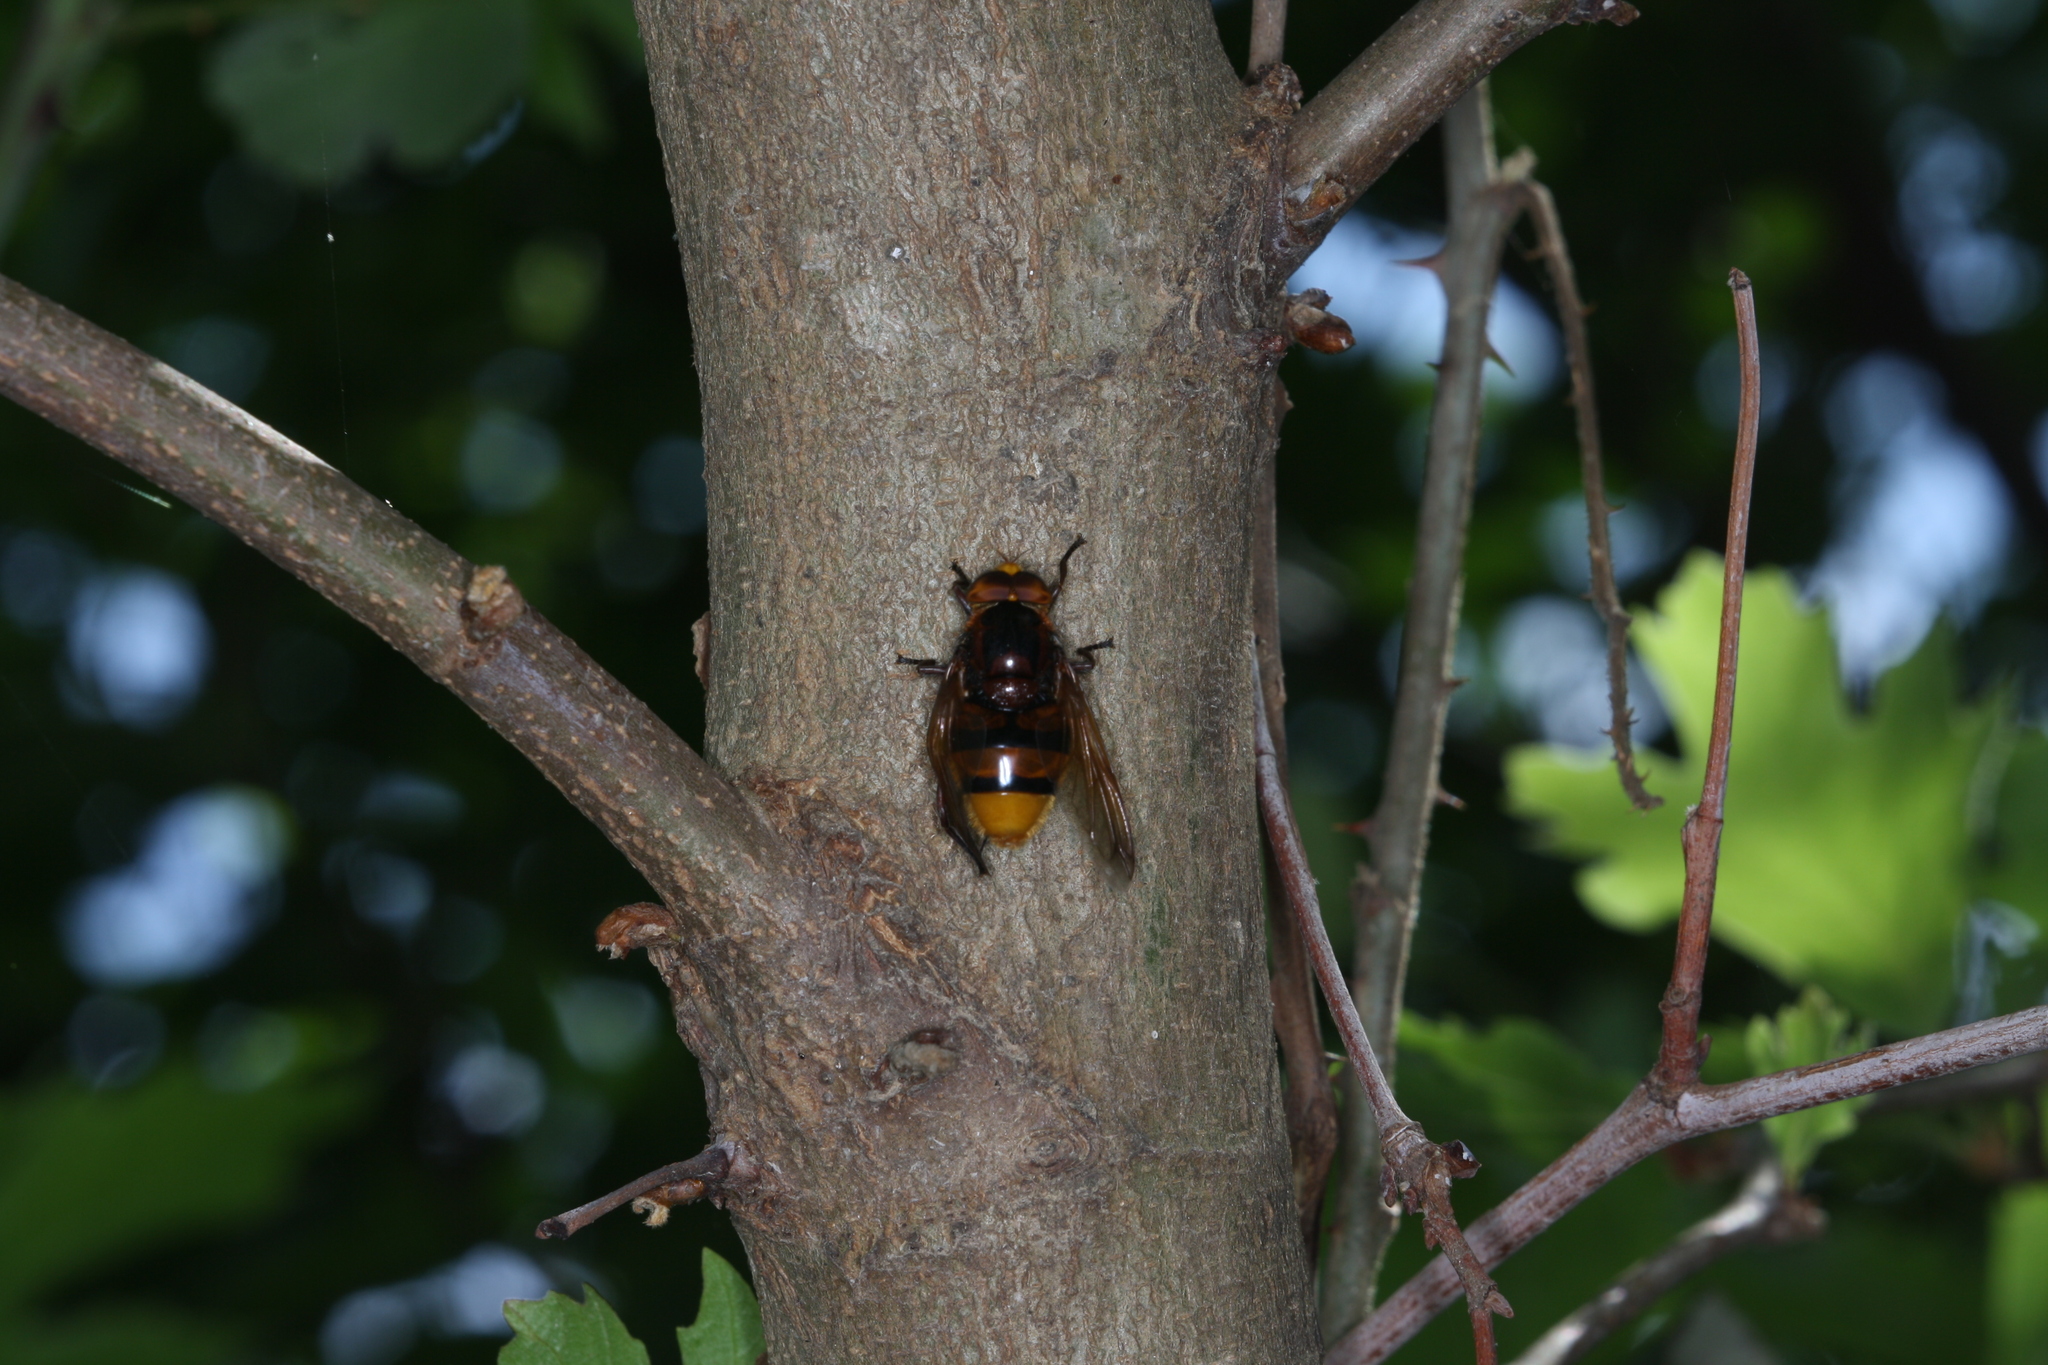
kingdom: Animalia
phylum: Arthropoda
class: Insecta
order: Diptera
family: Syrphidae
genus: Volucella
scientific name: Volucella zonaria
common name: Hornet hoverfly
